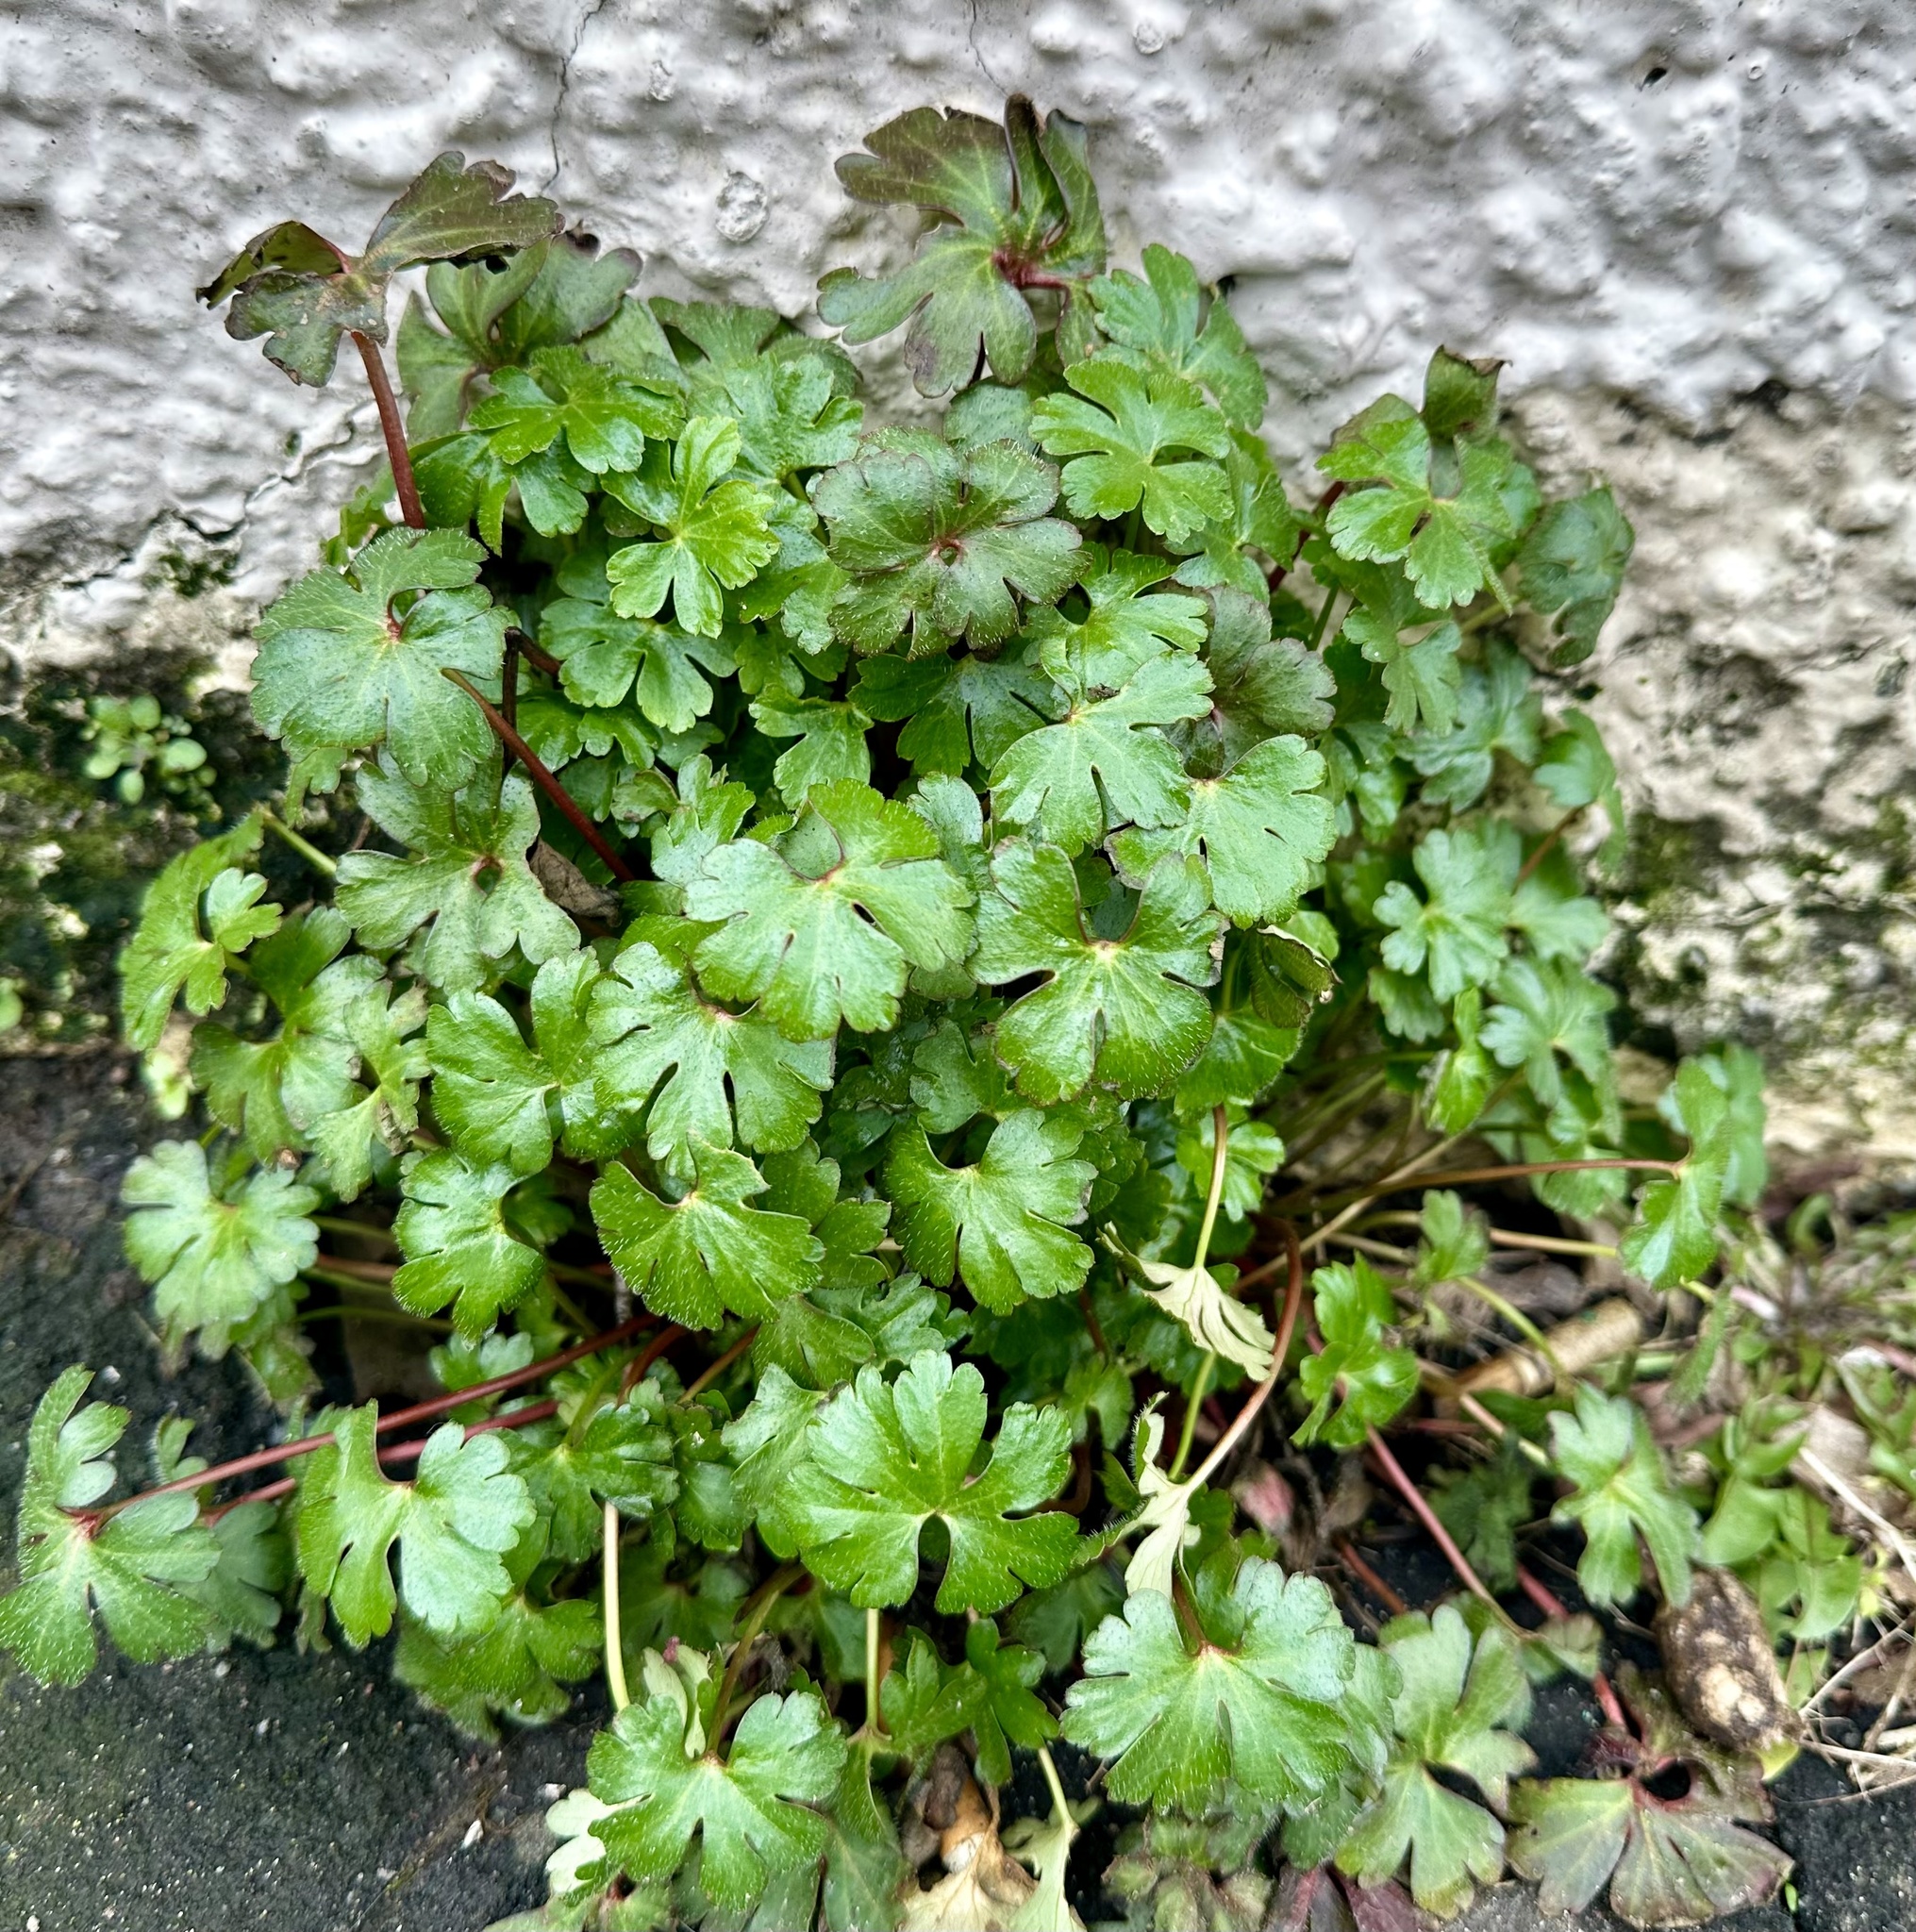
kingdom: Plantae
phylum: Tracheophyta
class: Magnoliopsida
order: Geraniales
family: Geraniaceae
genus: Geranium
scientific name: Geranium lucidum
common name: Shining crane's-bill
